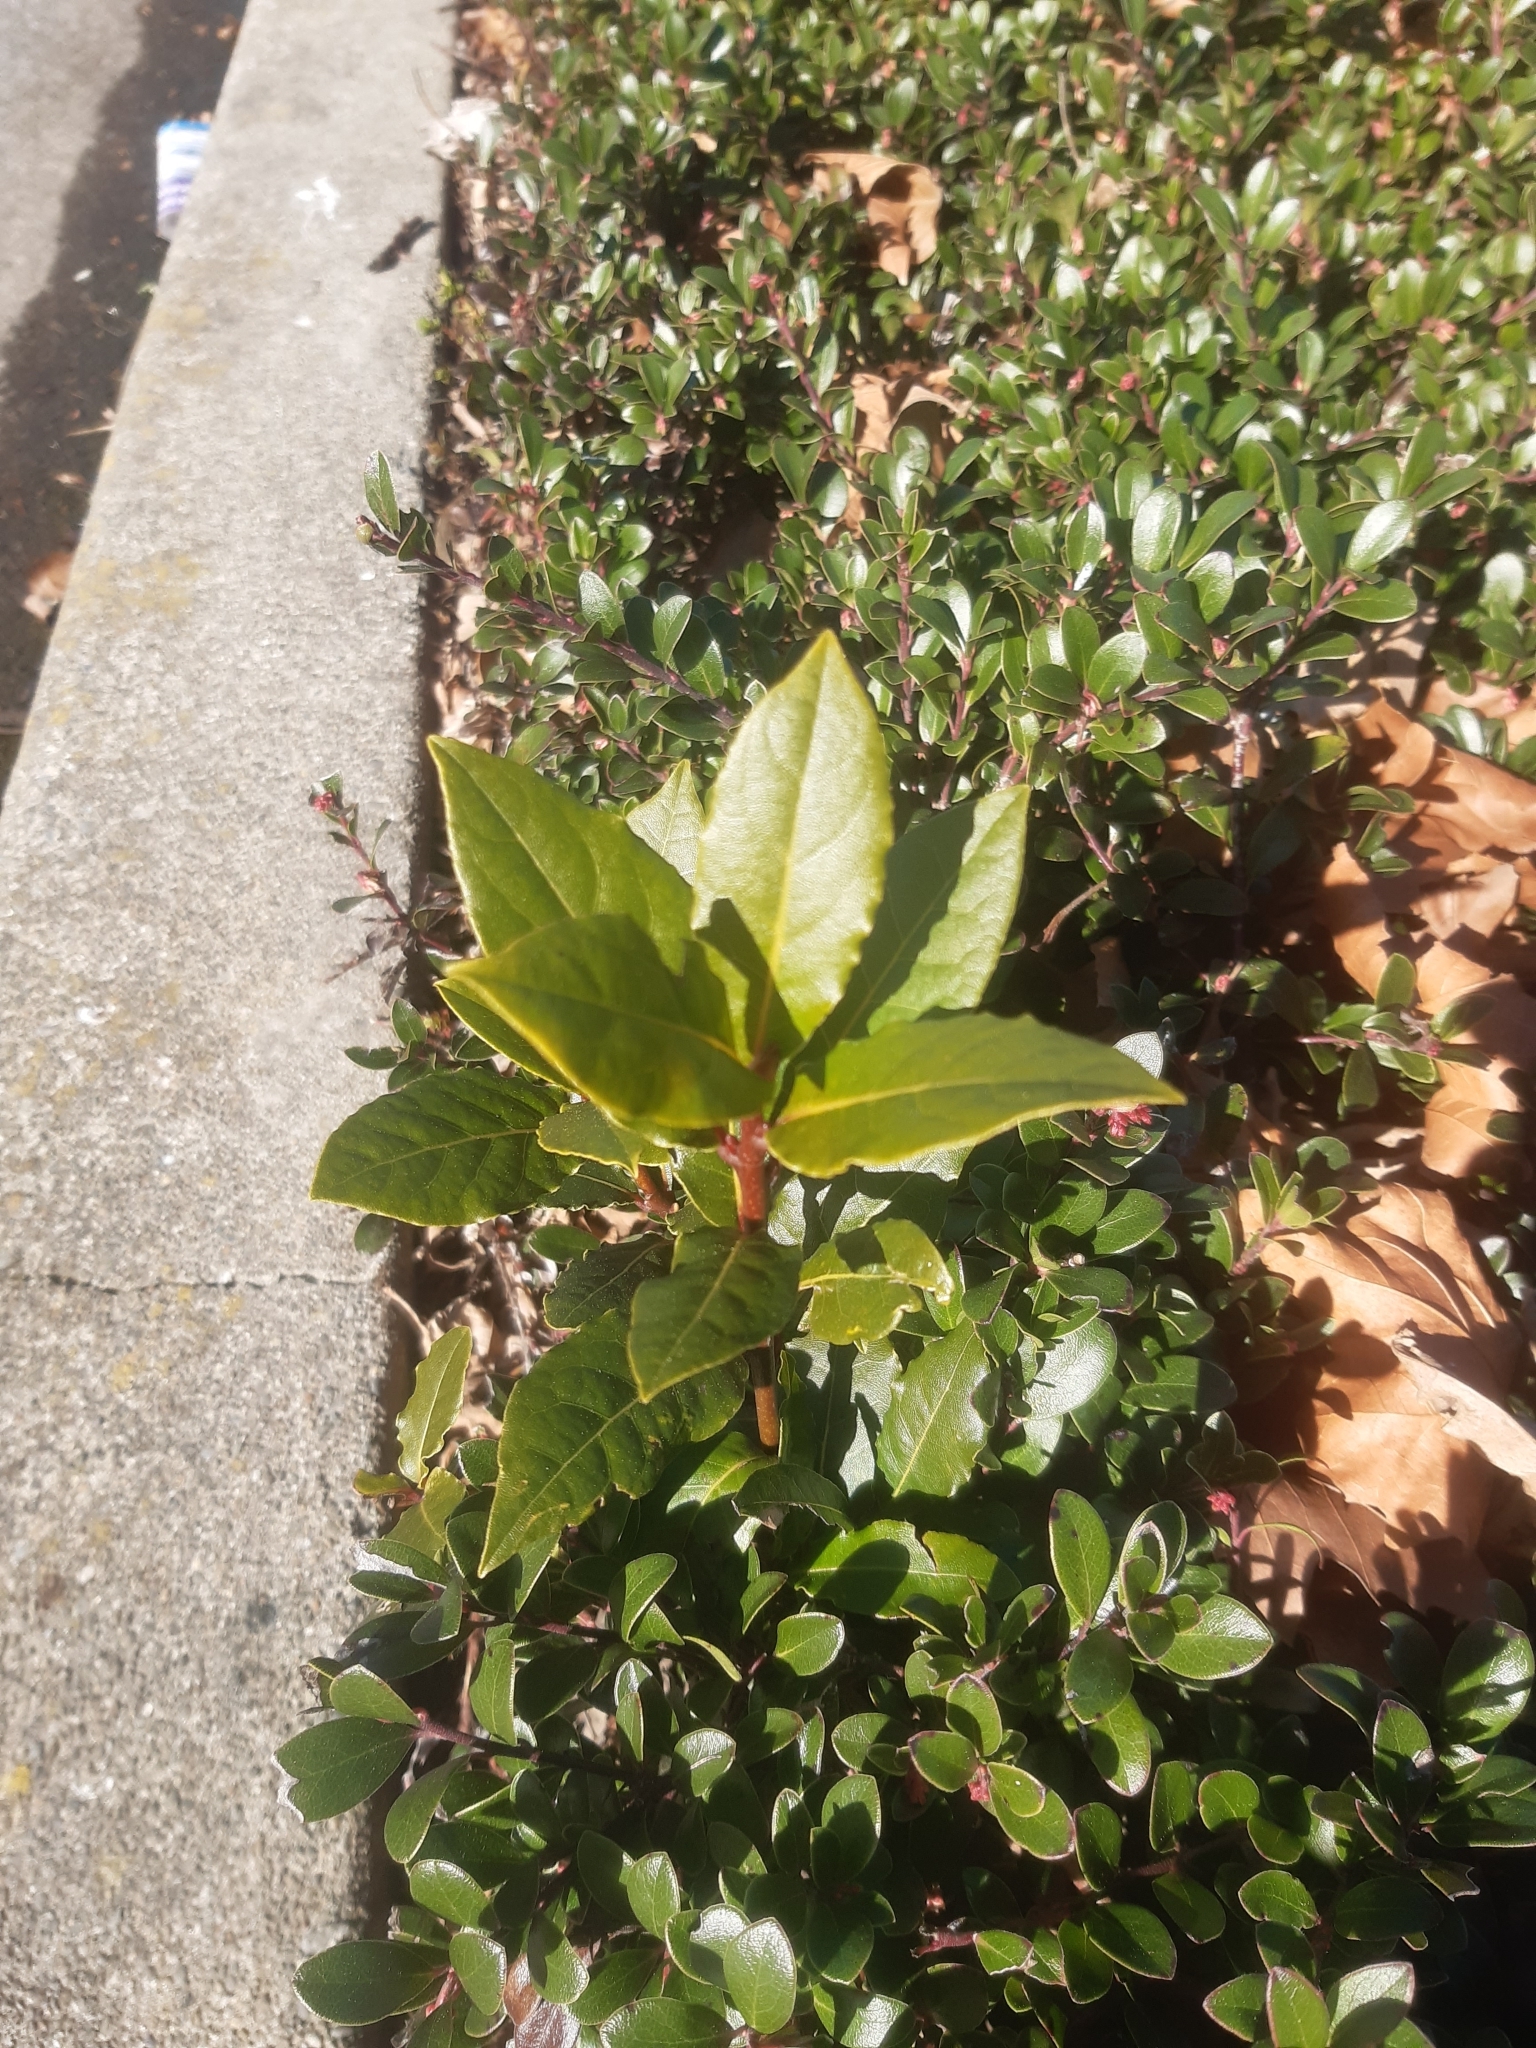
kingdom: Plantae
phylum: Tracheophyta
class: Magnoliopsida
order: Laurales
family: Lauraceae
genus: Laurus
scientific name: Laurus nobilis
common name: Bay
